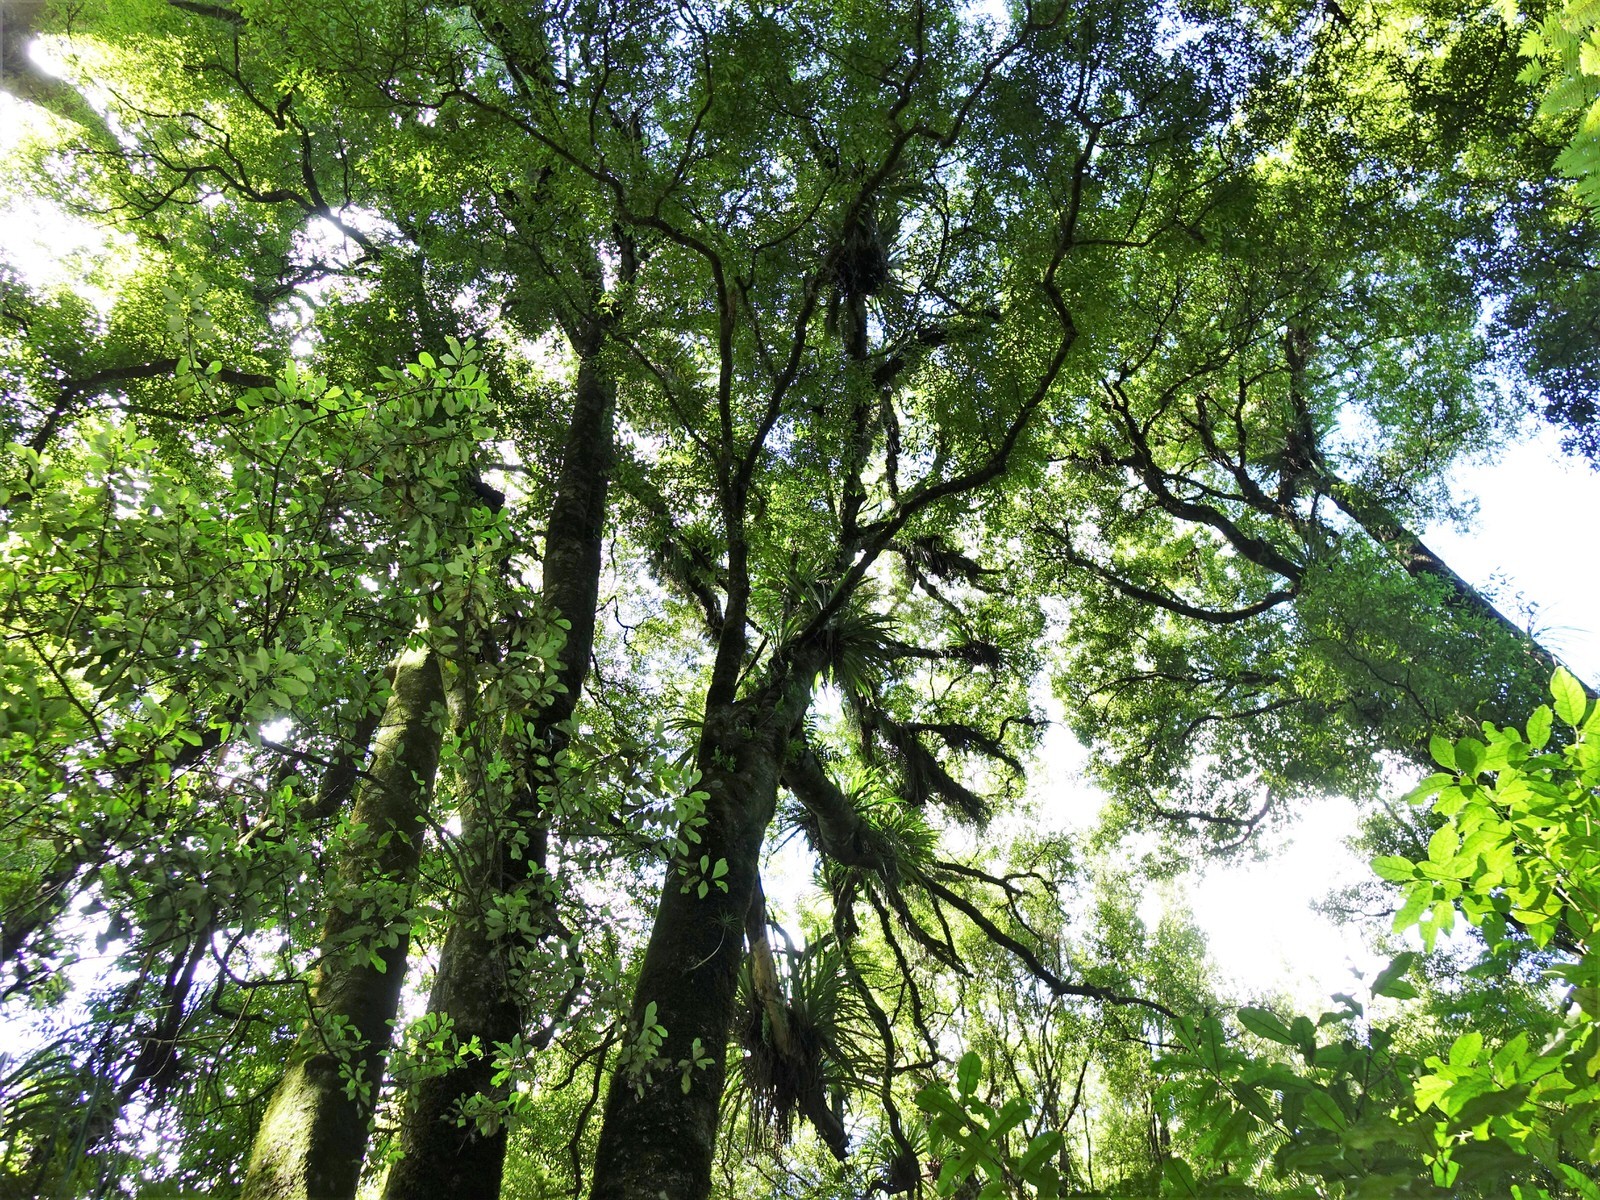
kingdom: Plantae
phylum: Tracheophyta
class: Magnoliopsida
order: Laurales
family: Lauraceae
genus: Beilschmiedia
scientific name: Beilschmiedia tawa
